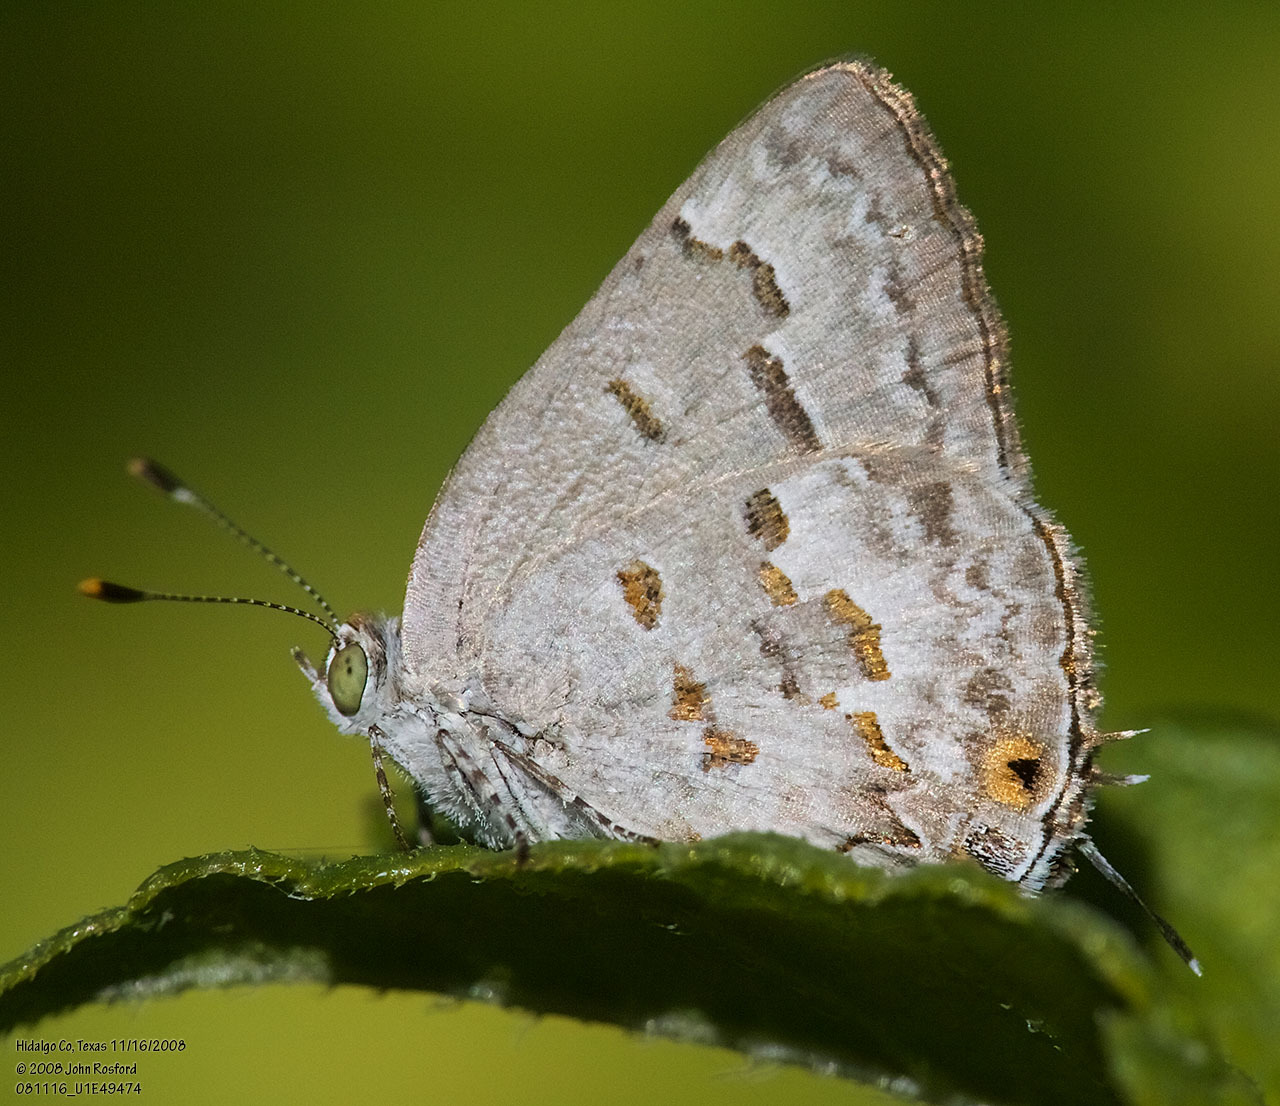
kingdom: Animalia
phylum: Arthropoda
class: Insecta
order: Lepidoptera
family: Lycaenidae
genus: Ministrymon
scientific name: Ministrymon clytie
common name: Clytie ministreak
